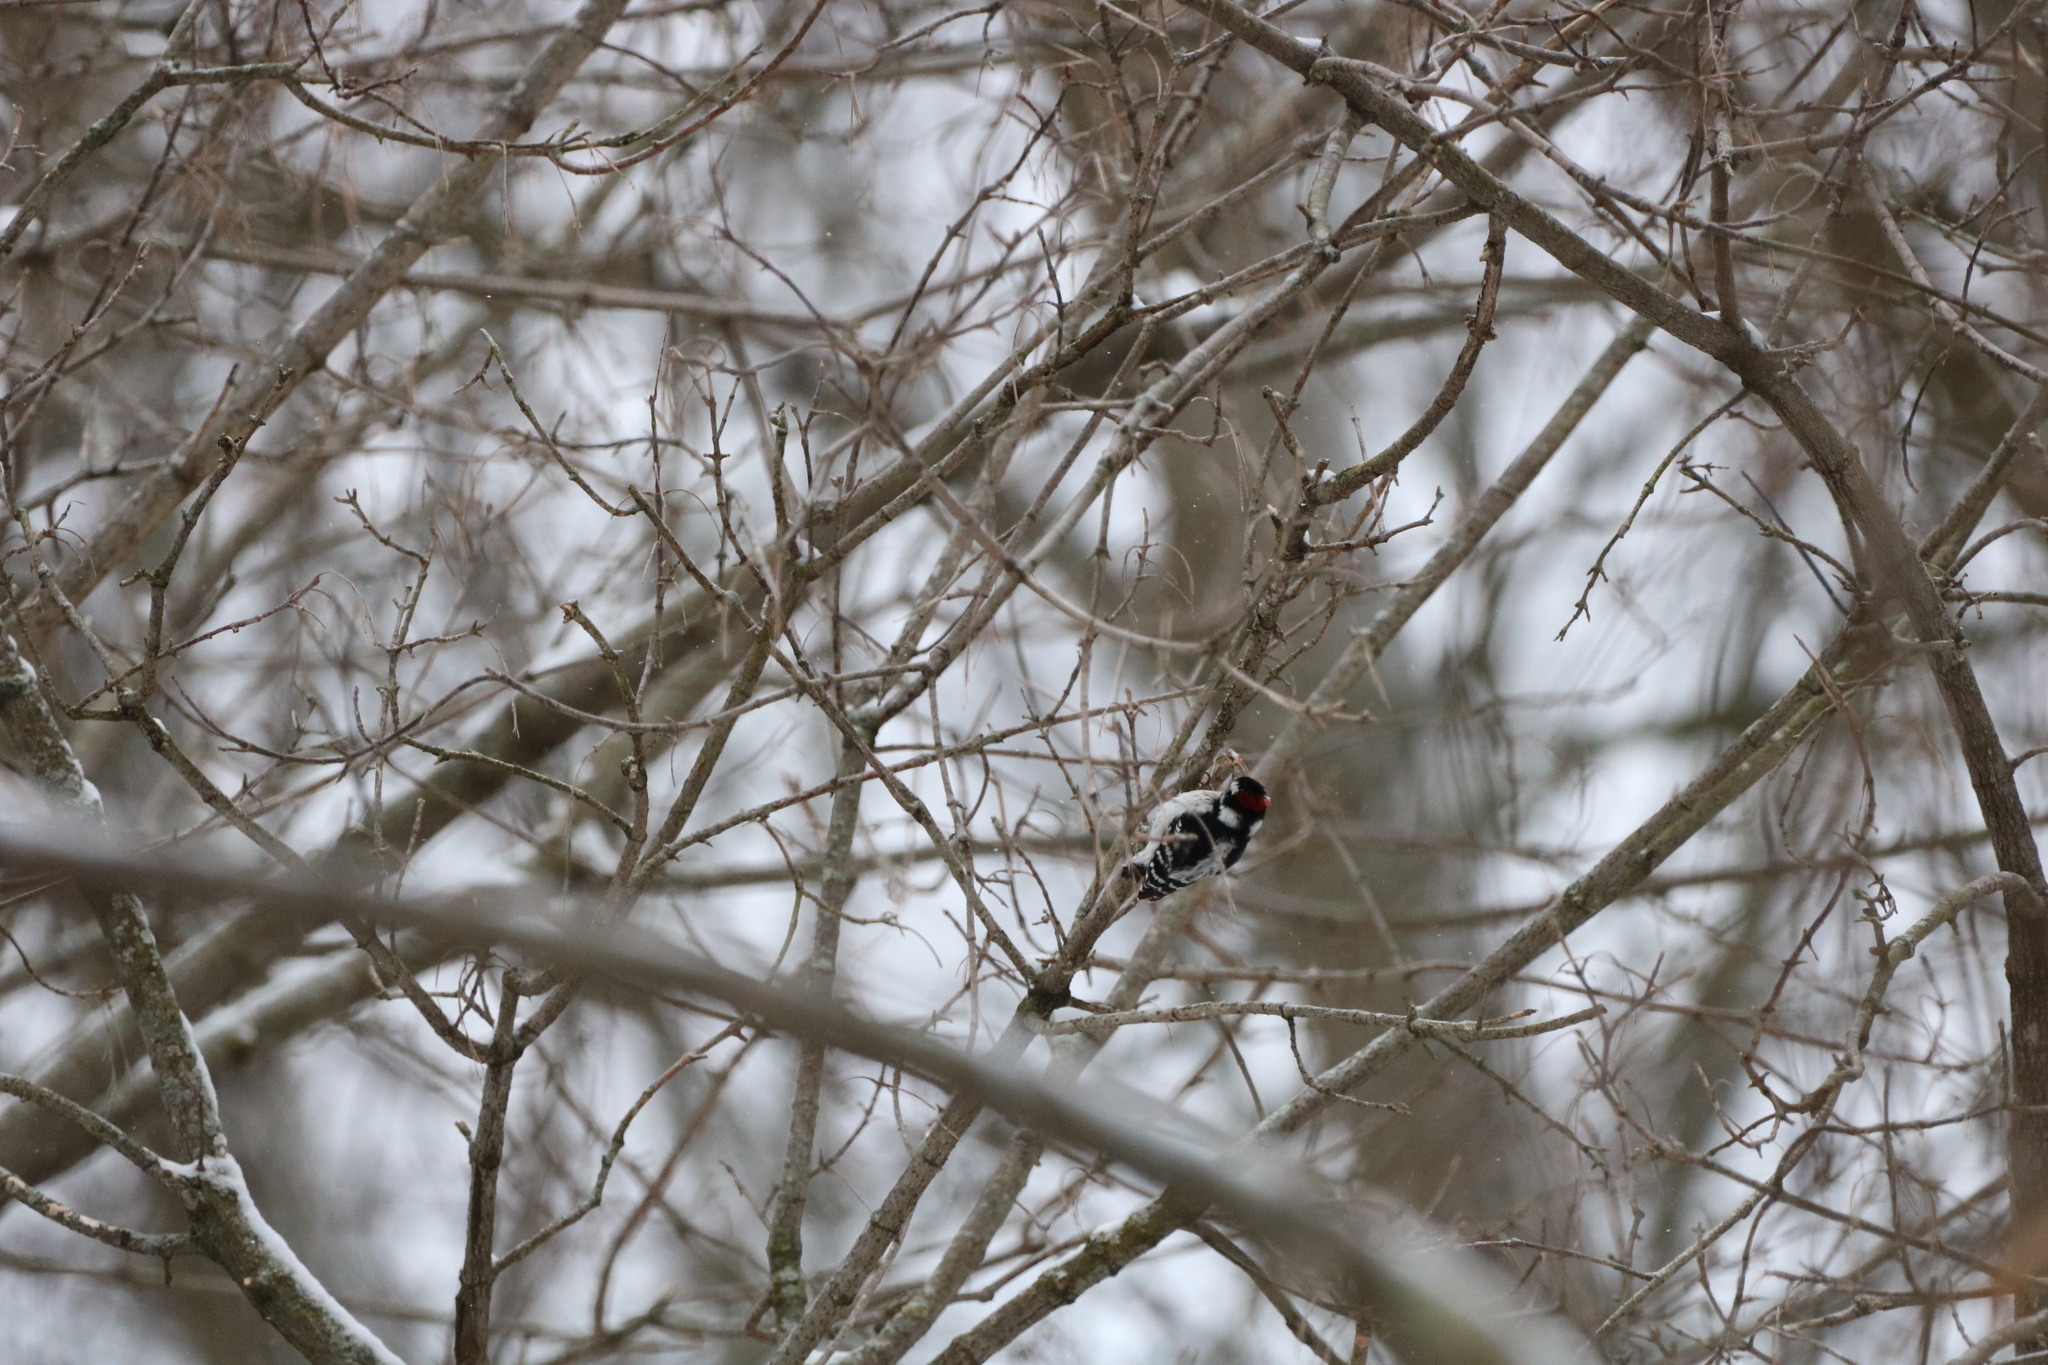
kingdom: Animalia
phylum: Chordata
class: Aves
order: Piciformes
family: Picidae
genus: Dryobates
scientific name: Dryobates pubescens
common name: Downy woodpecker
